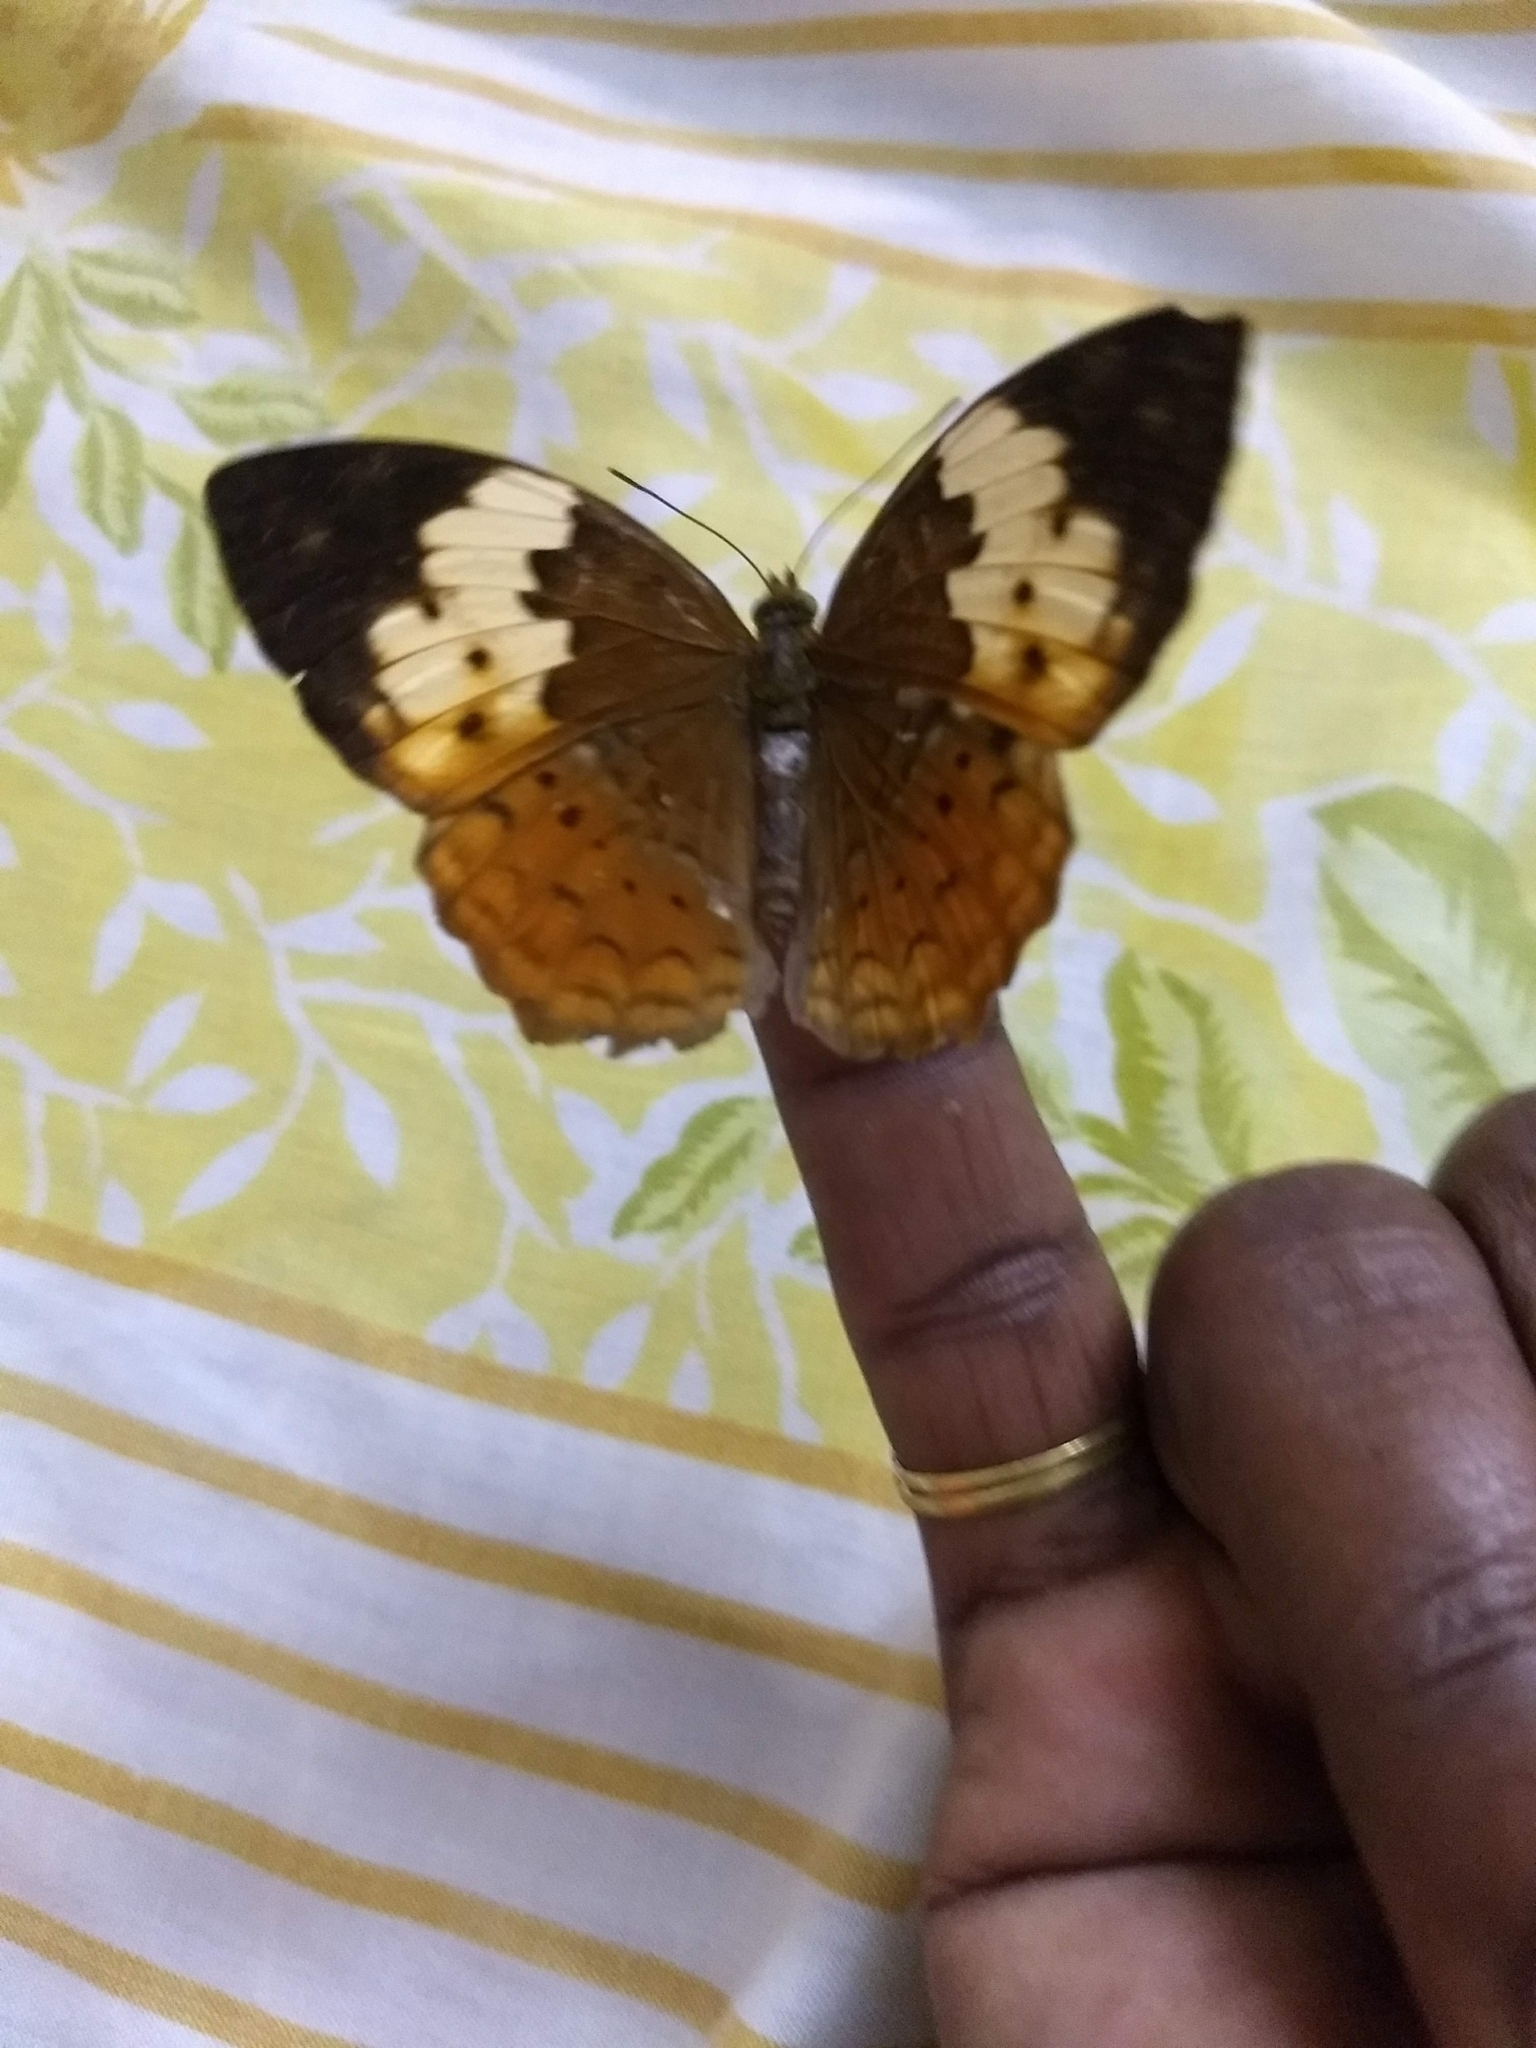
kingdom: Animalia
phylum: Arthropoda
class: Insecta
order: Lepidoptera
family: Nymphalidae
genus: Cupha
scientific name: Cupha erymanthis
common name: Rustic
